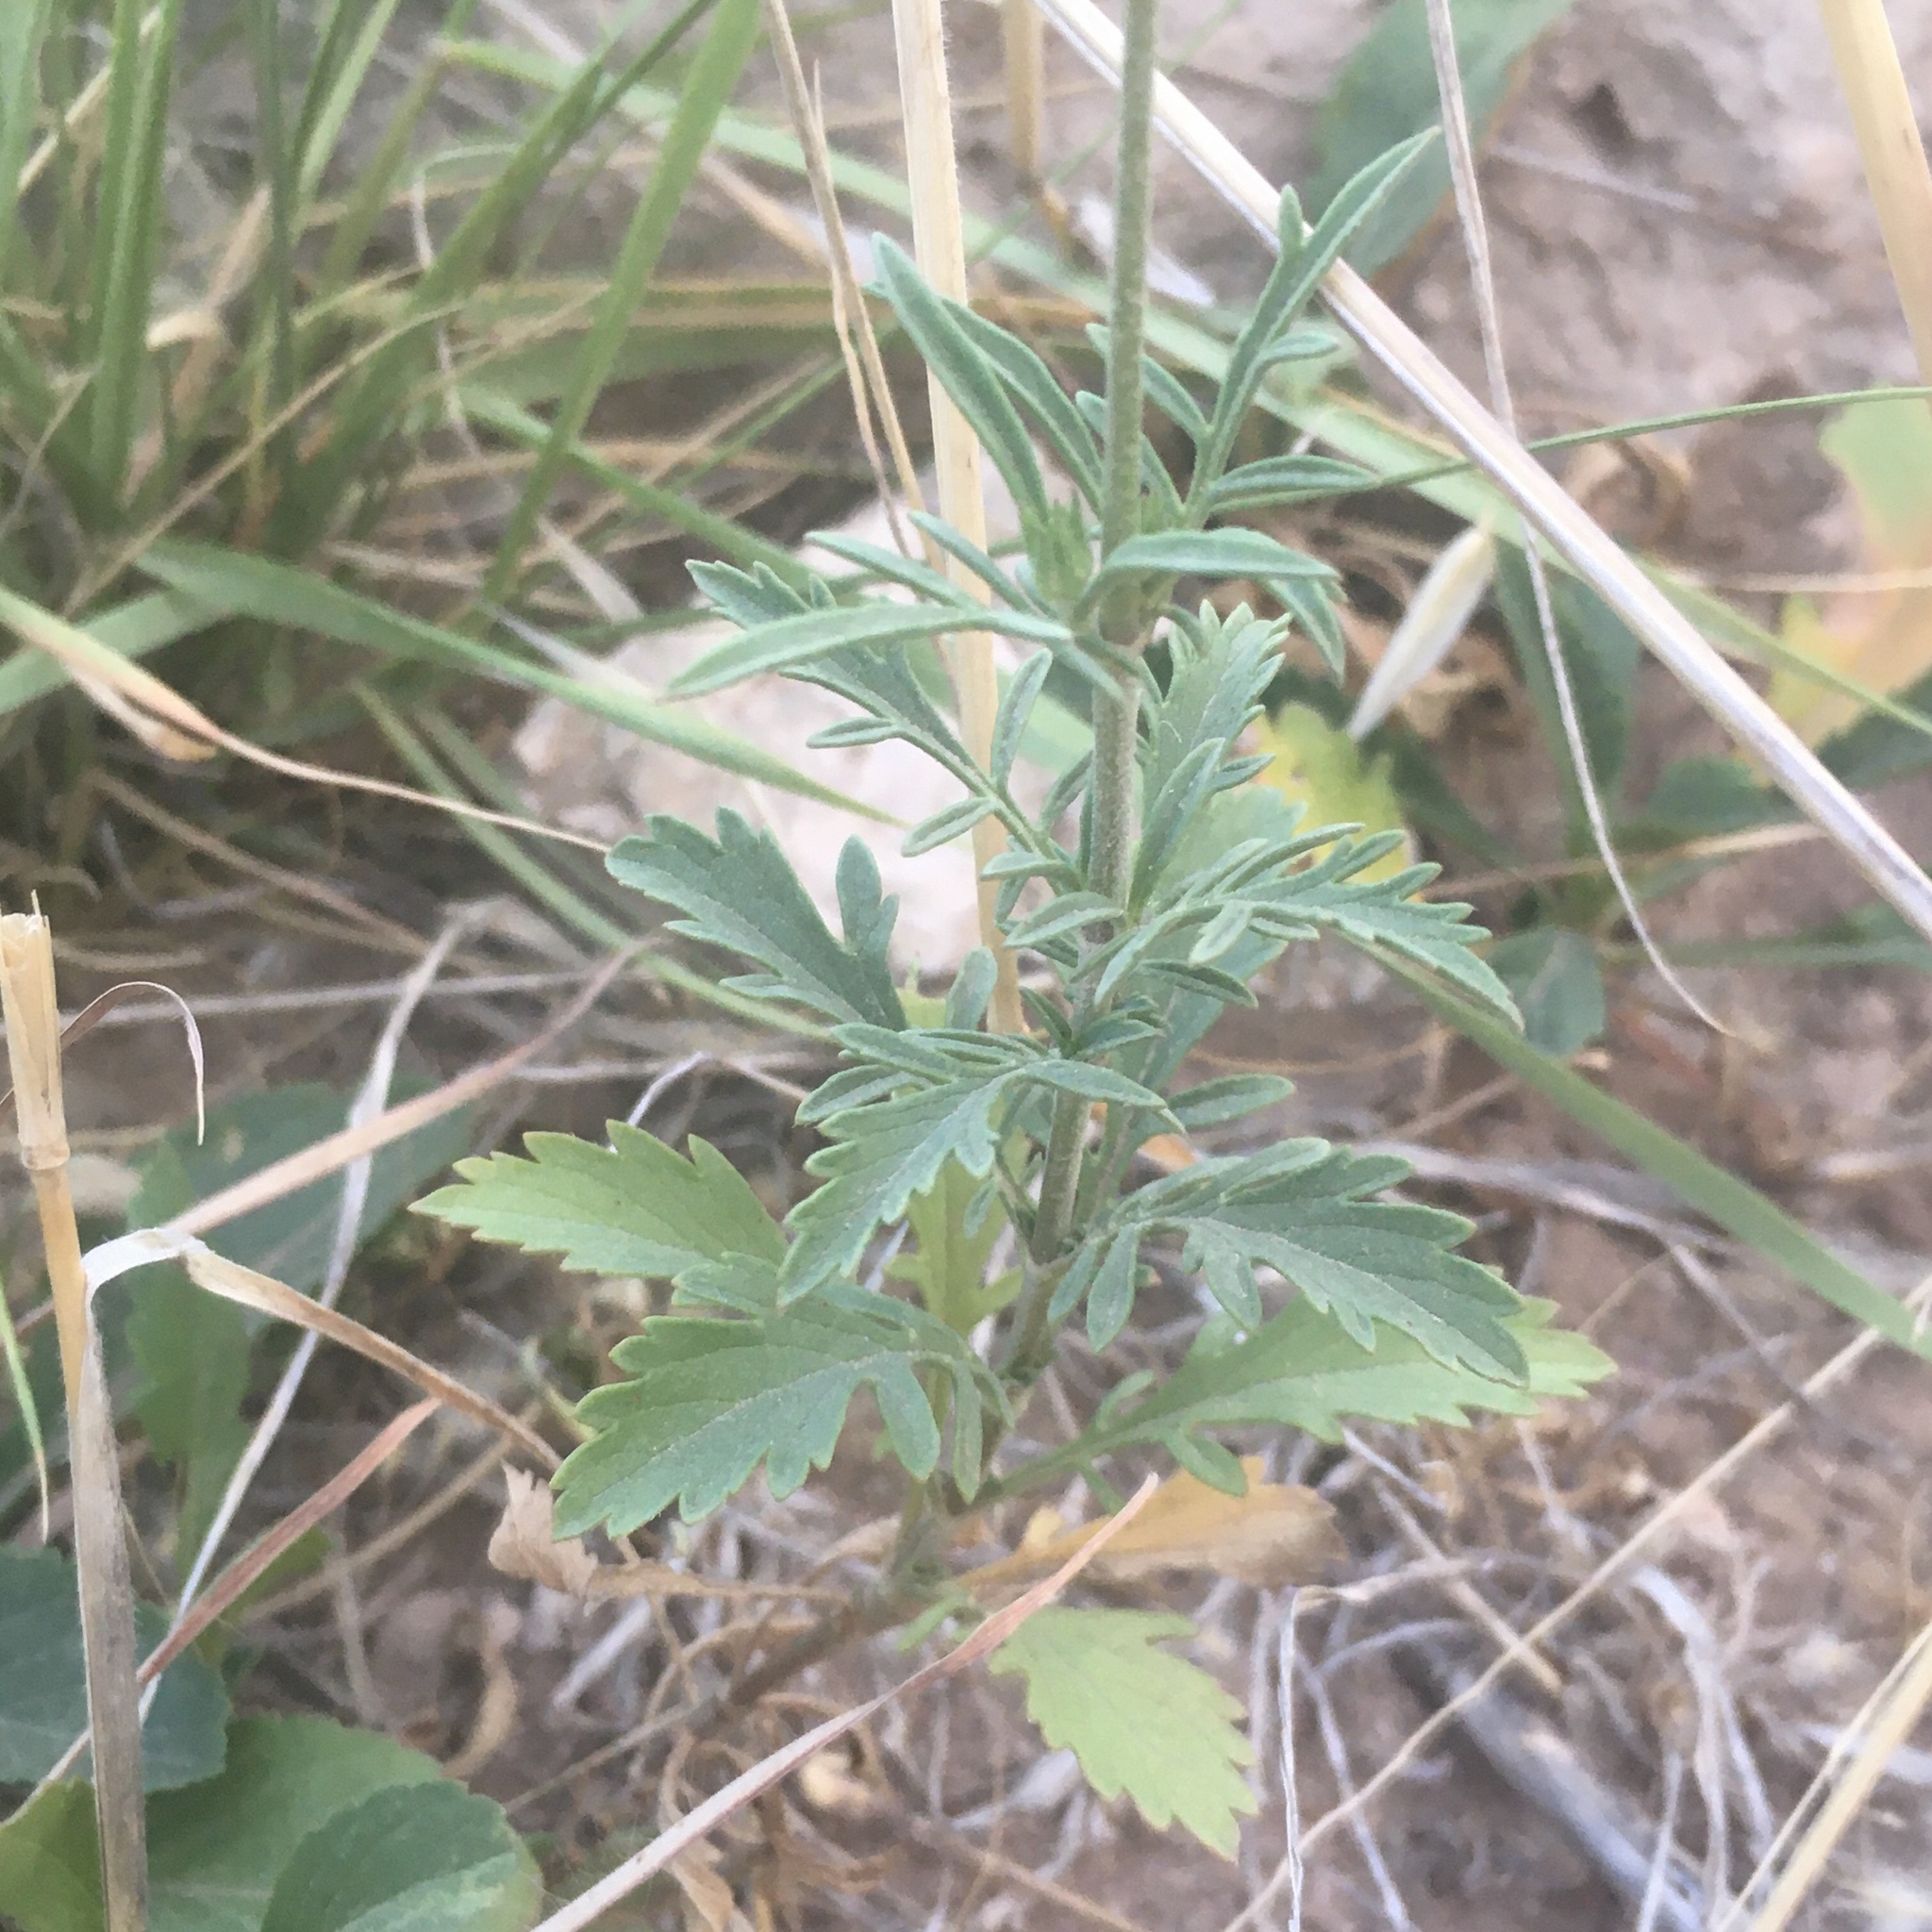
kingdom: Plantae
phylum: Tracheophyta
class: Magnoliopsida
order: Dipsacales
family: Caprifoliaceae
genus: Sixalix
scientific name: Sixalix atropurpurea
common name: Sweet scabious
